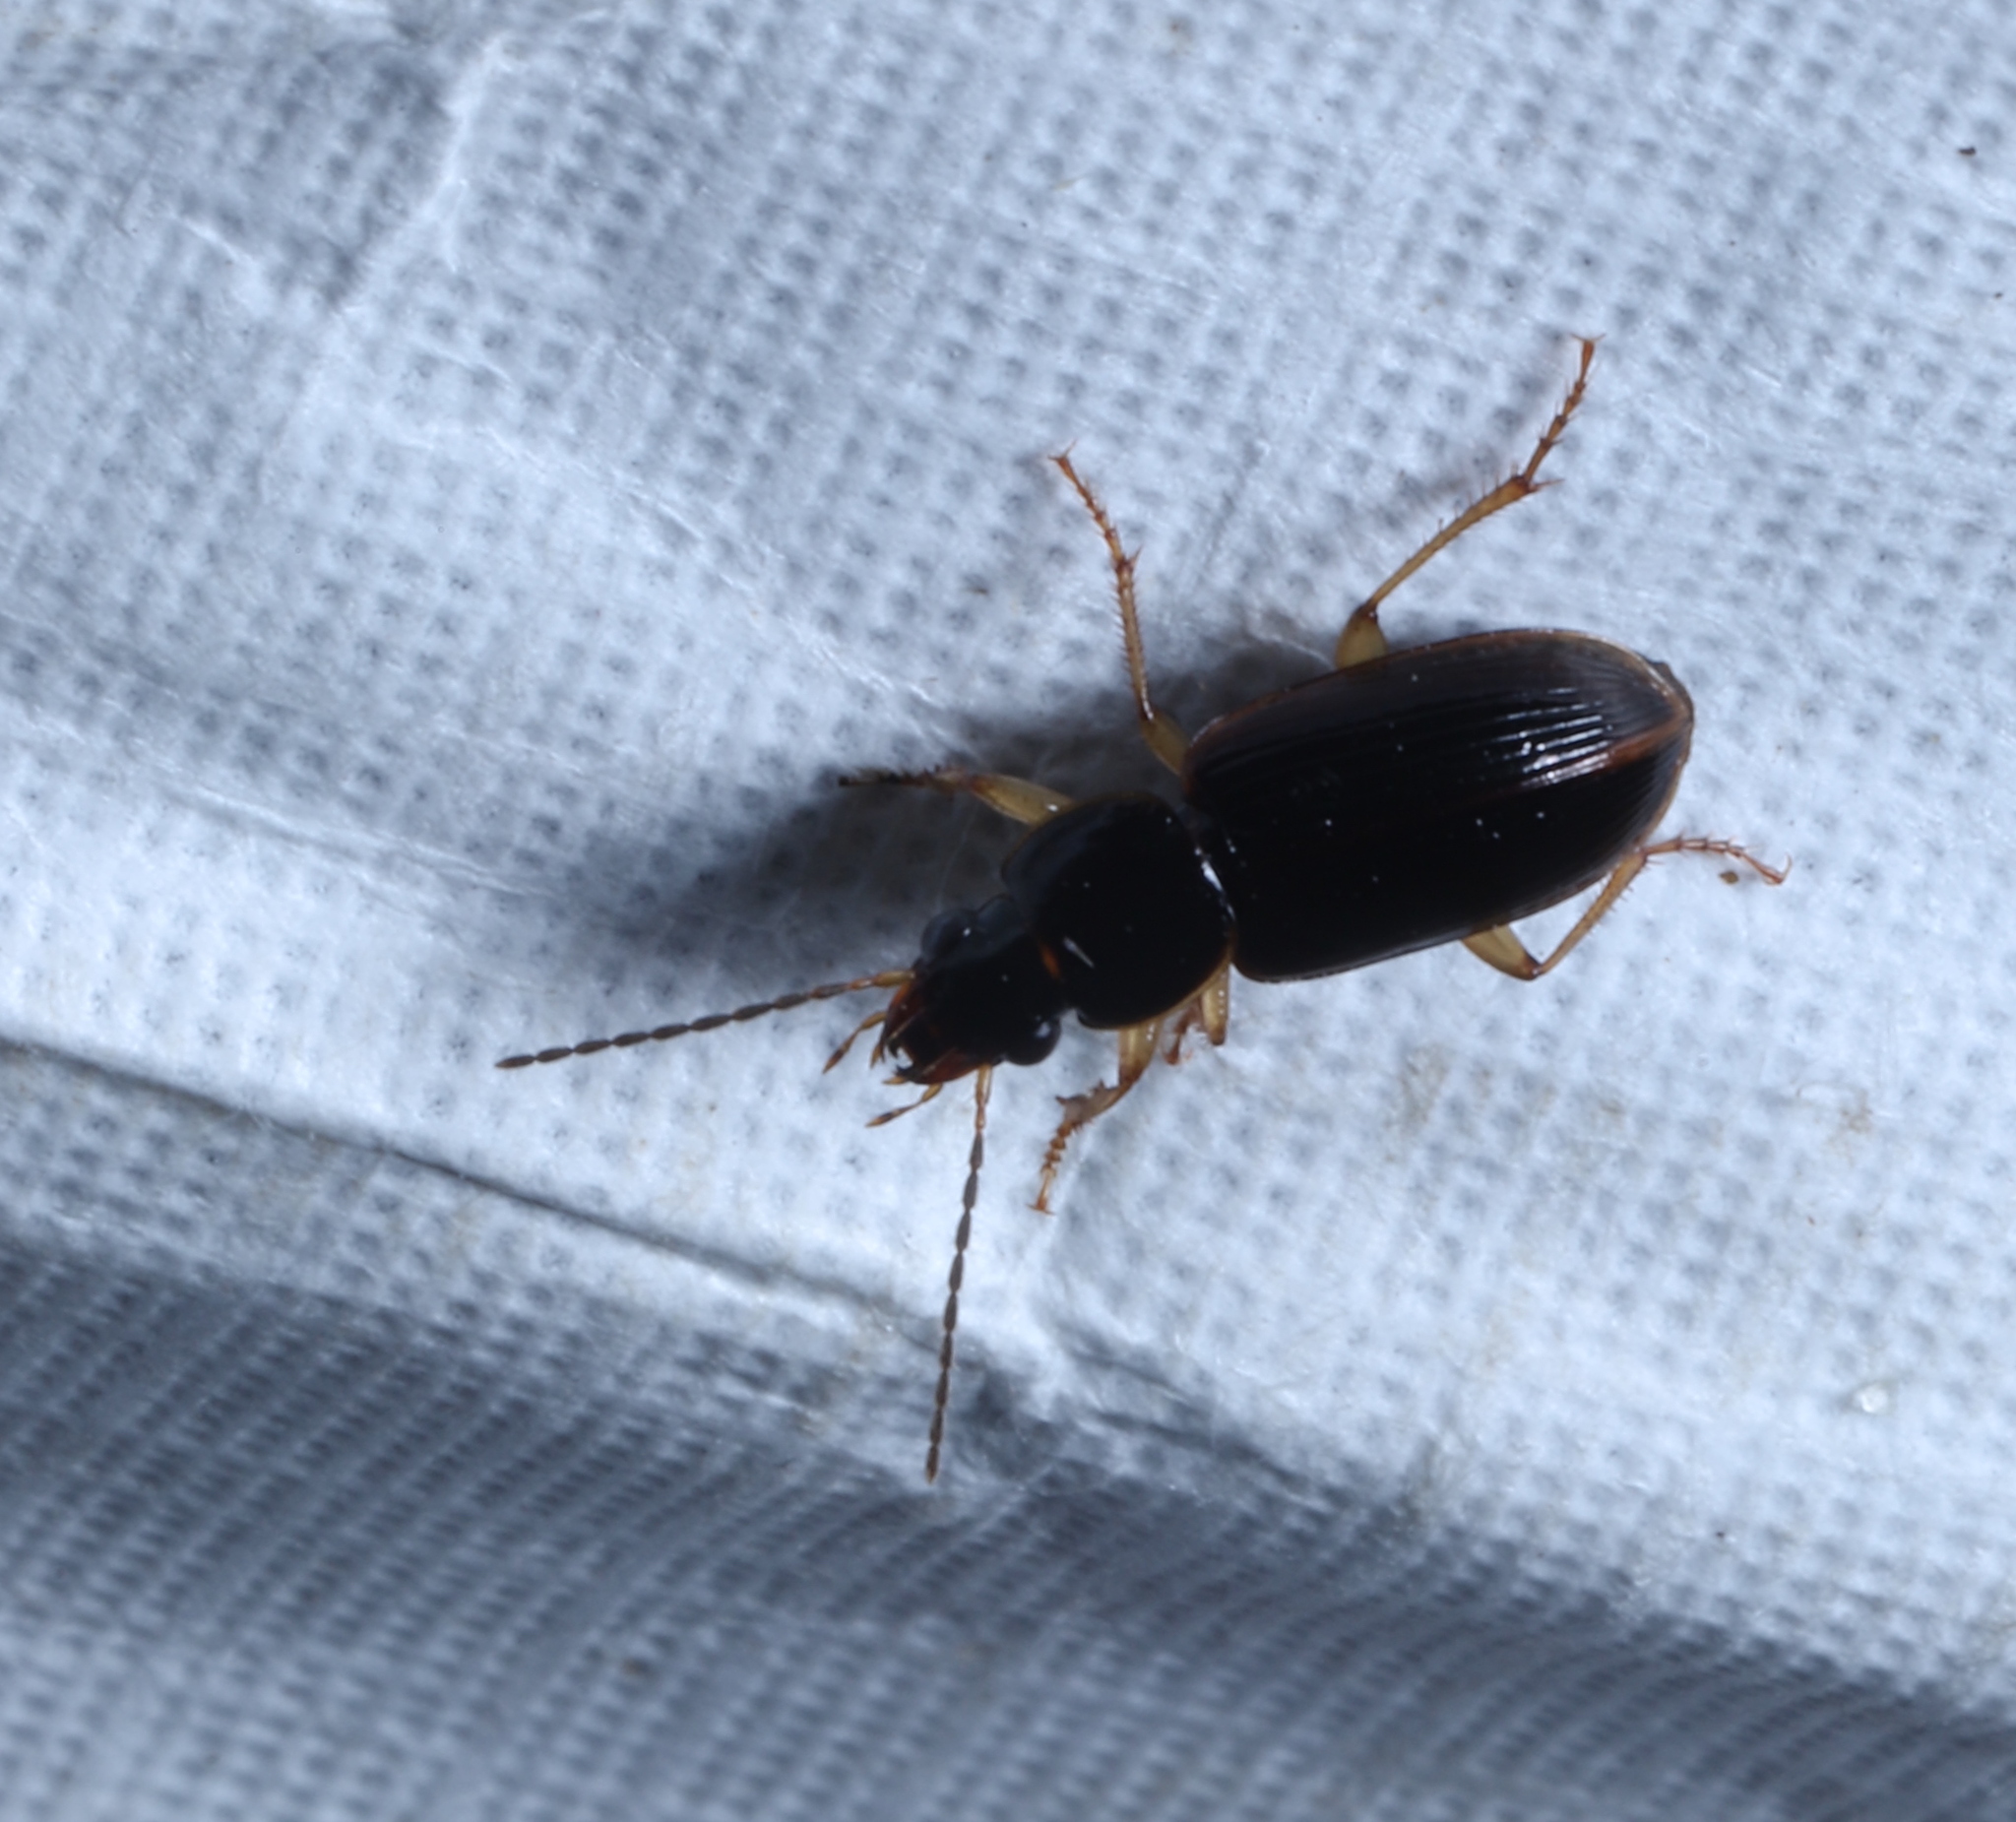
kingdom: Animalia
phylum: Arthropoda
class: Insecta
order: Coleoptera
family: Carabidae
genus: Stenolophus
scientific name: Stenolophus ochropezus
